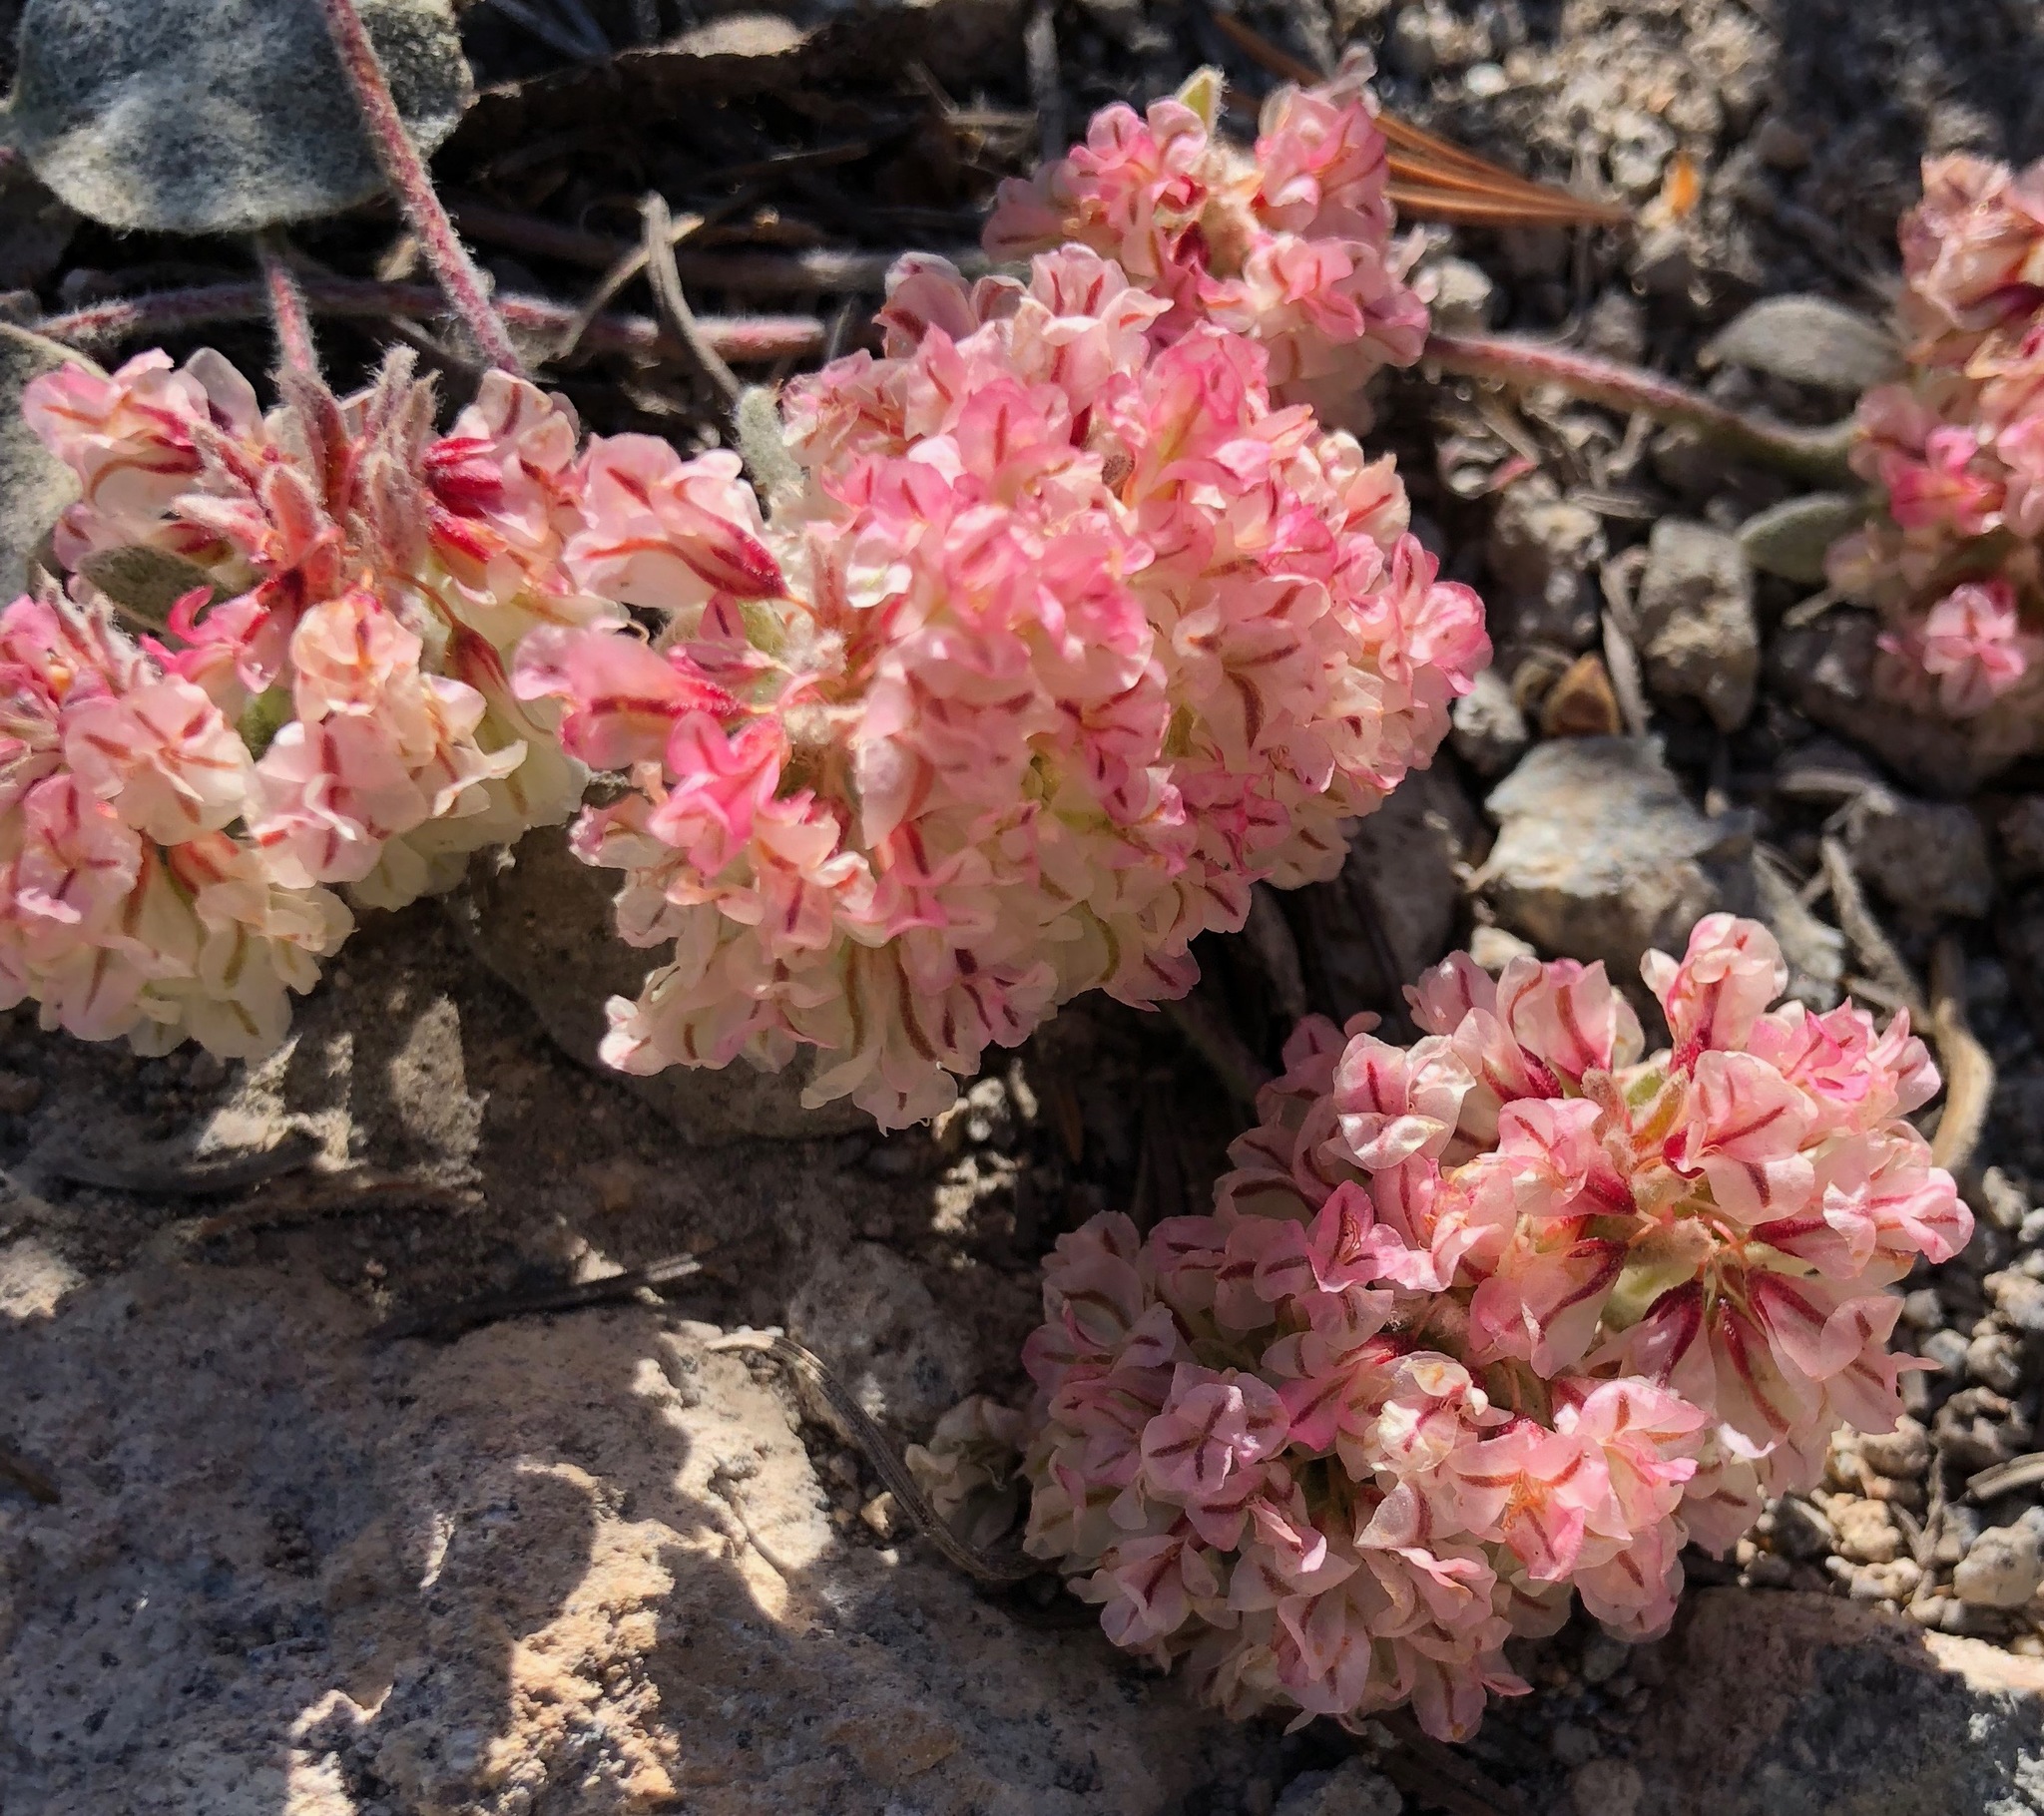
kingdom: Plantae
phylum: Tracheophyta
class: Magnoliopsida
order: Caryophyllales
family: Polygonaceae
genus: Eriogonum
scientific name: Eriogonum lobbii
